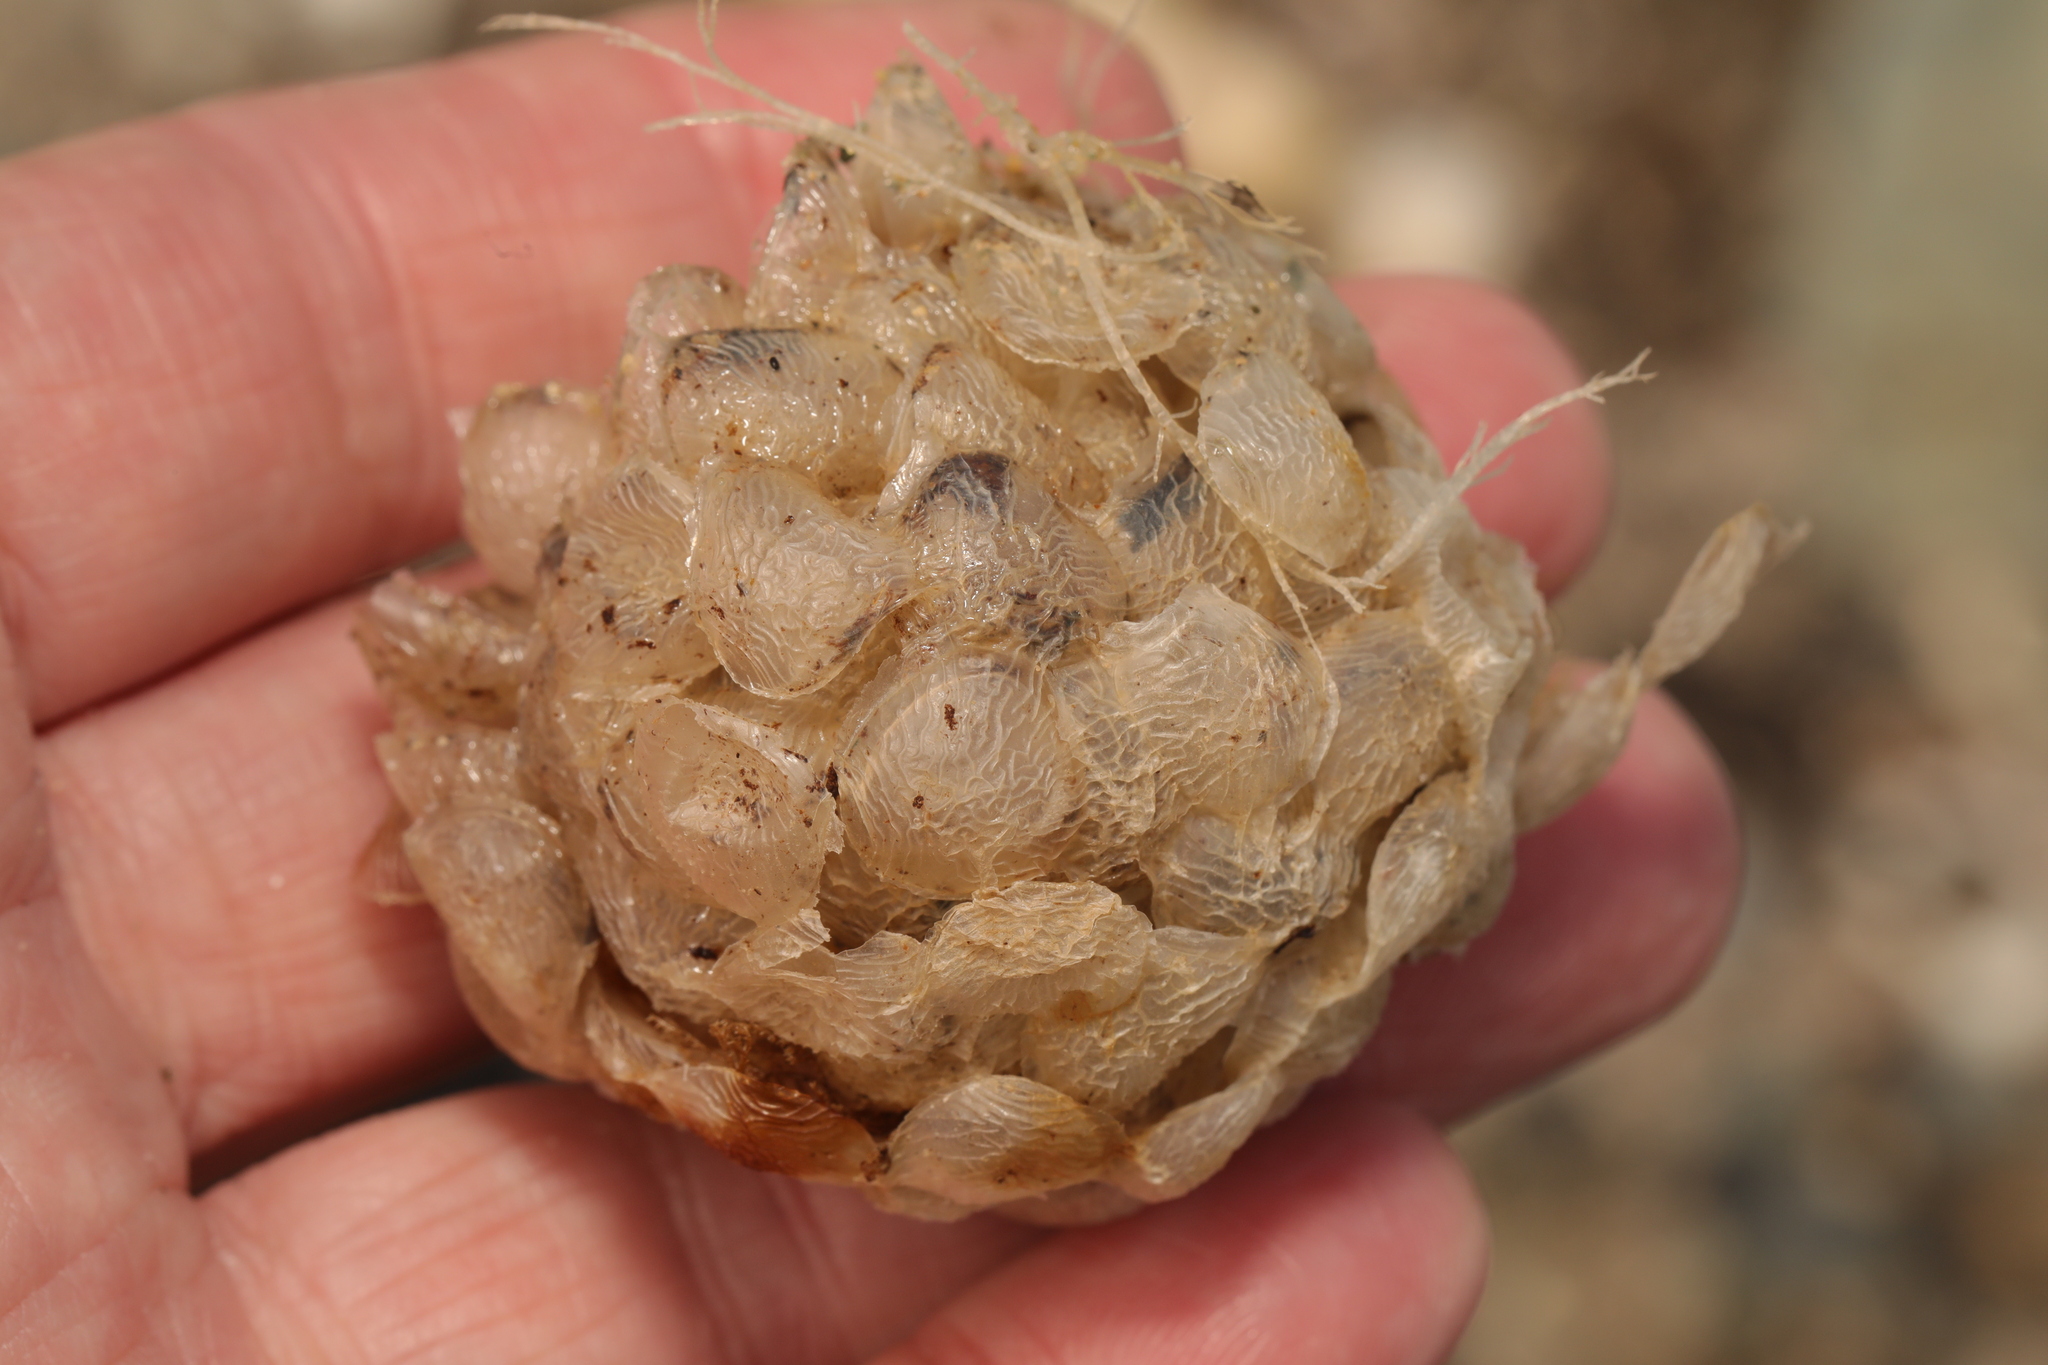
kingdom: Animalia
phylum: Mollusca
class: Gastropoda
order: Neogastropoda
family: Buccinidae
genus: Buccinum
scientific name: Buccinum undatum
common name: Common whelk
